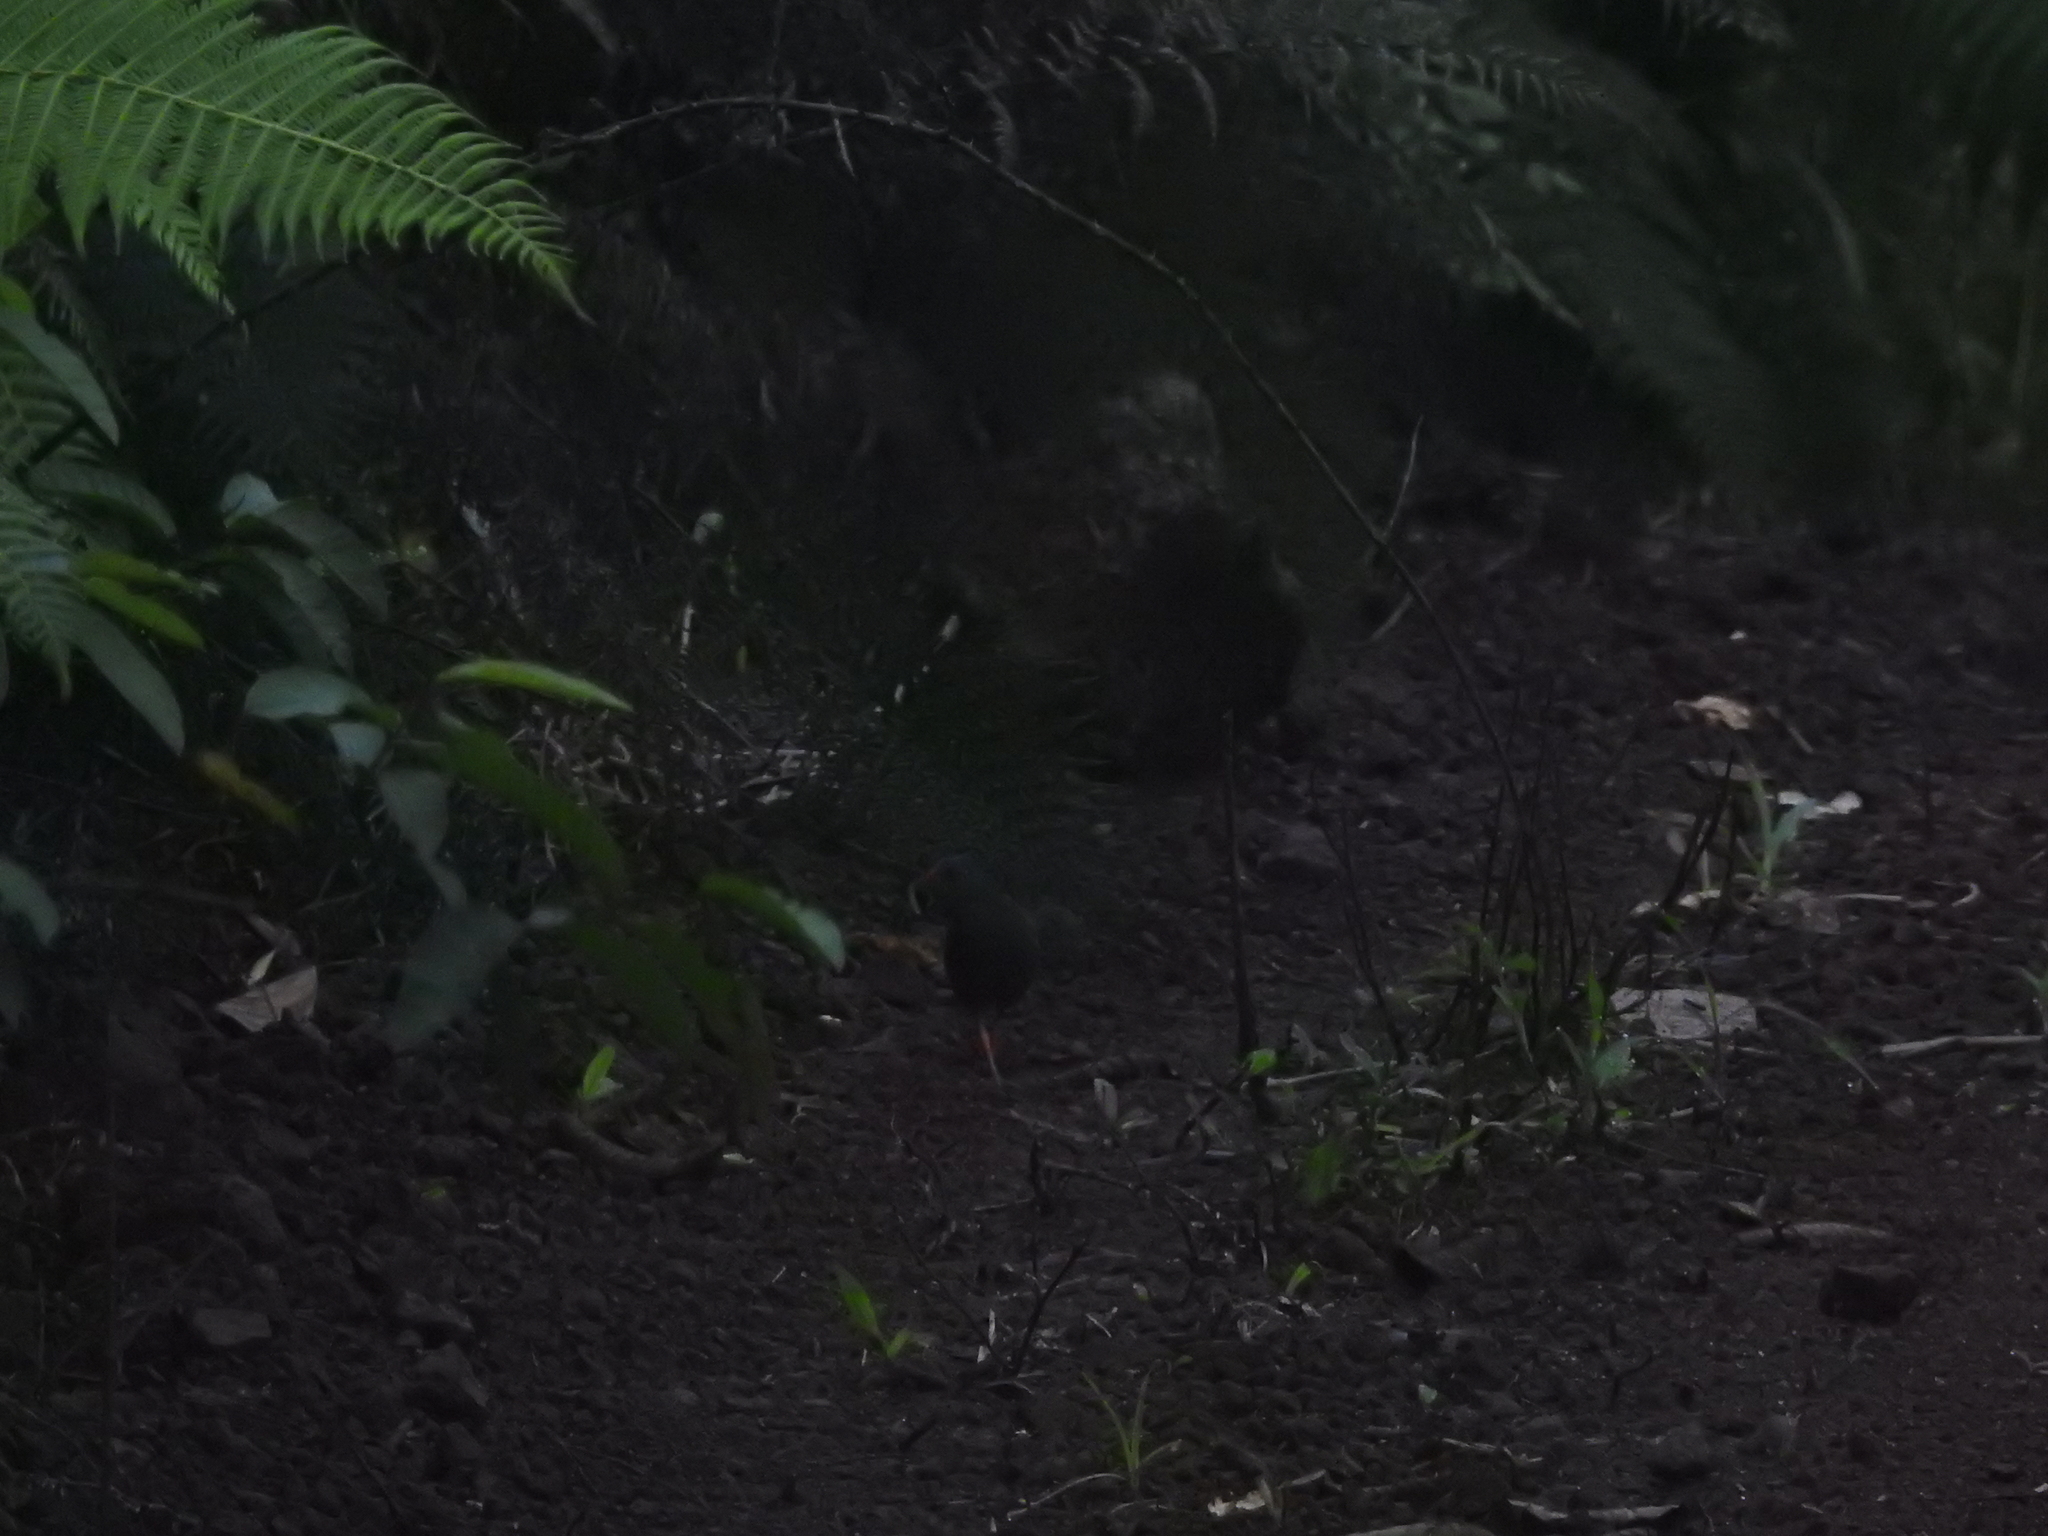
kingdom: Animalia
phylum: Chordata
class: Aves
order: Gruiformes
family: Rallidae
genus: Neocrex
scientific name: Neocrex erythrops
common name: Paint-billed crake
